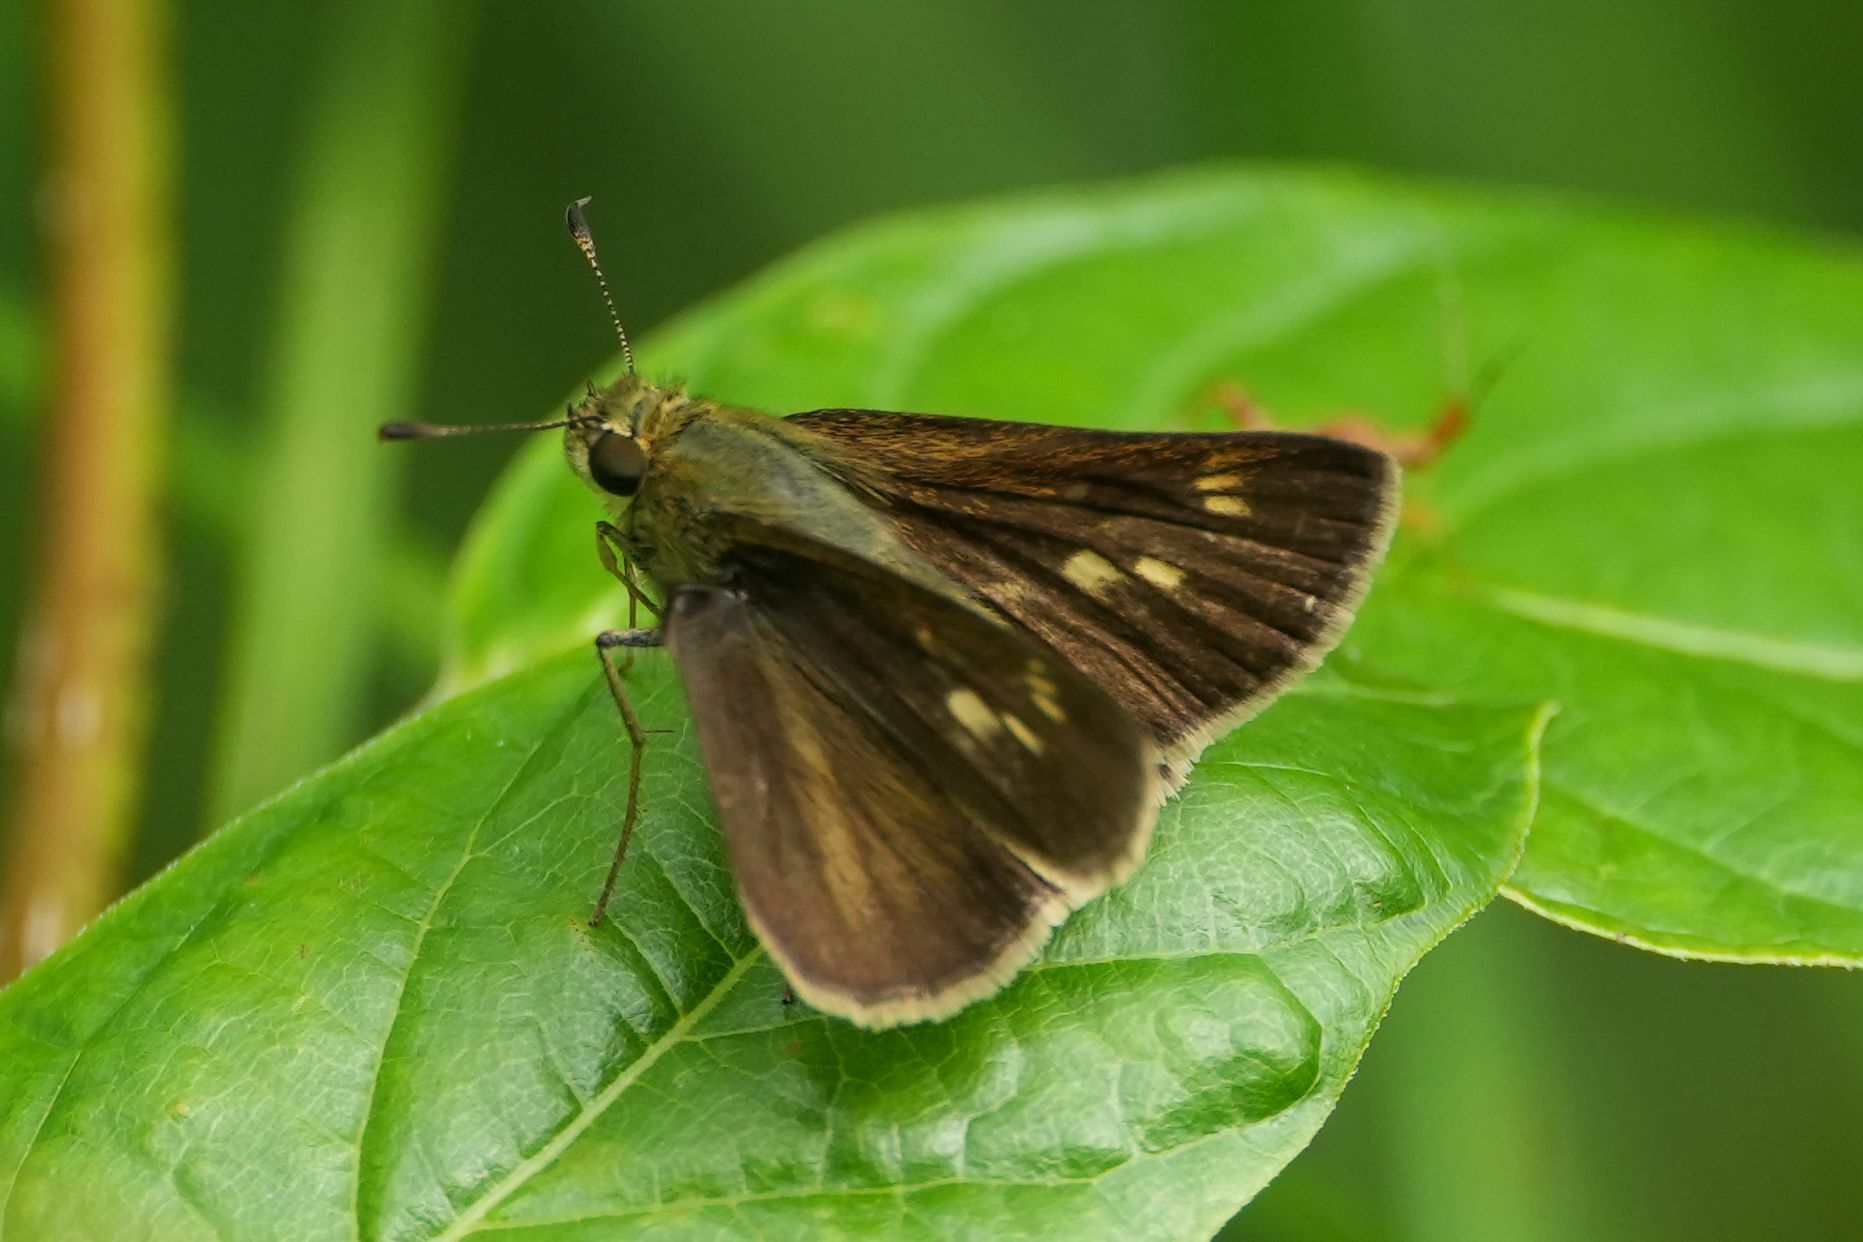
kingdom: Animalia
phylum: Arthropoda
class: Insecta
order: Lepidoptera
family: Hesperiidae
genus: Polites
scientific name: Polites egeremet
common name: Northern broken-dash
